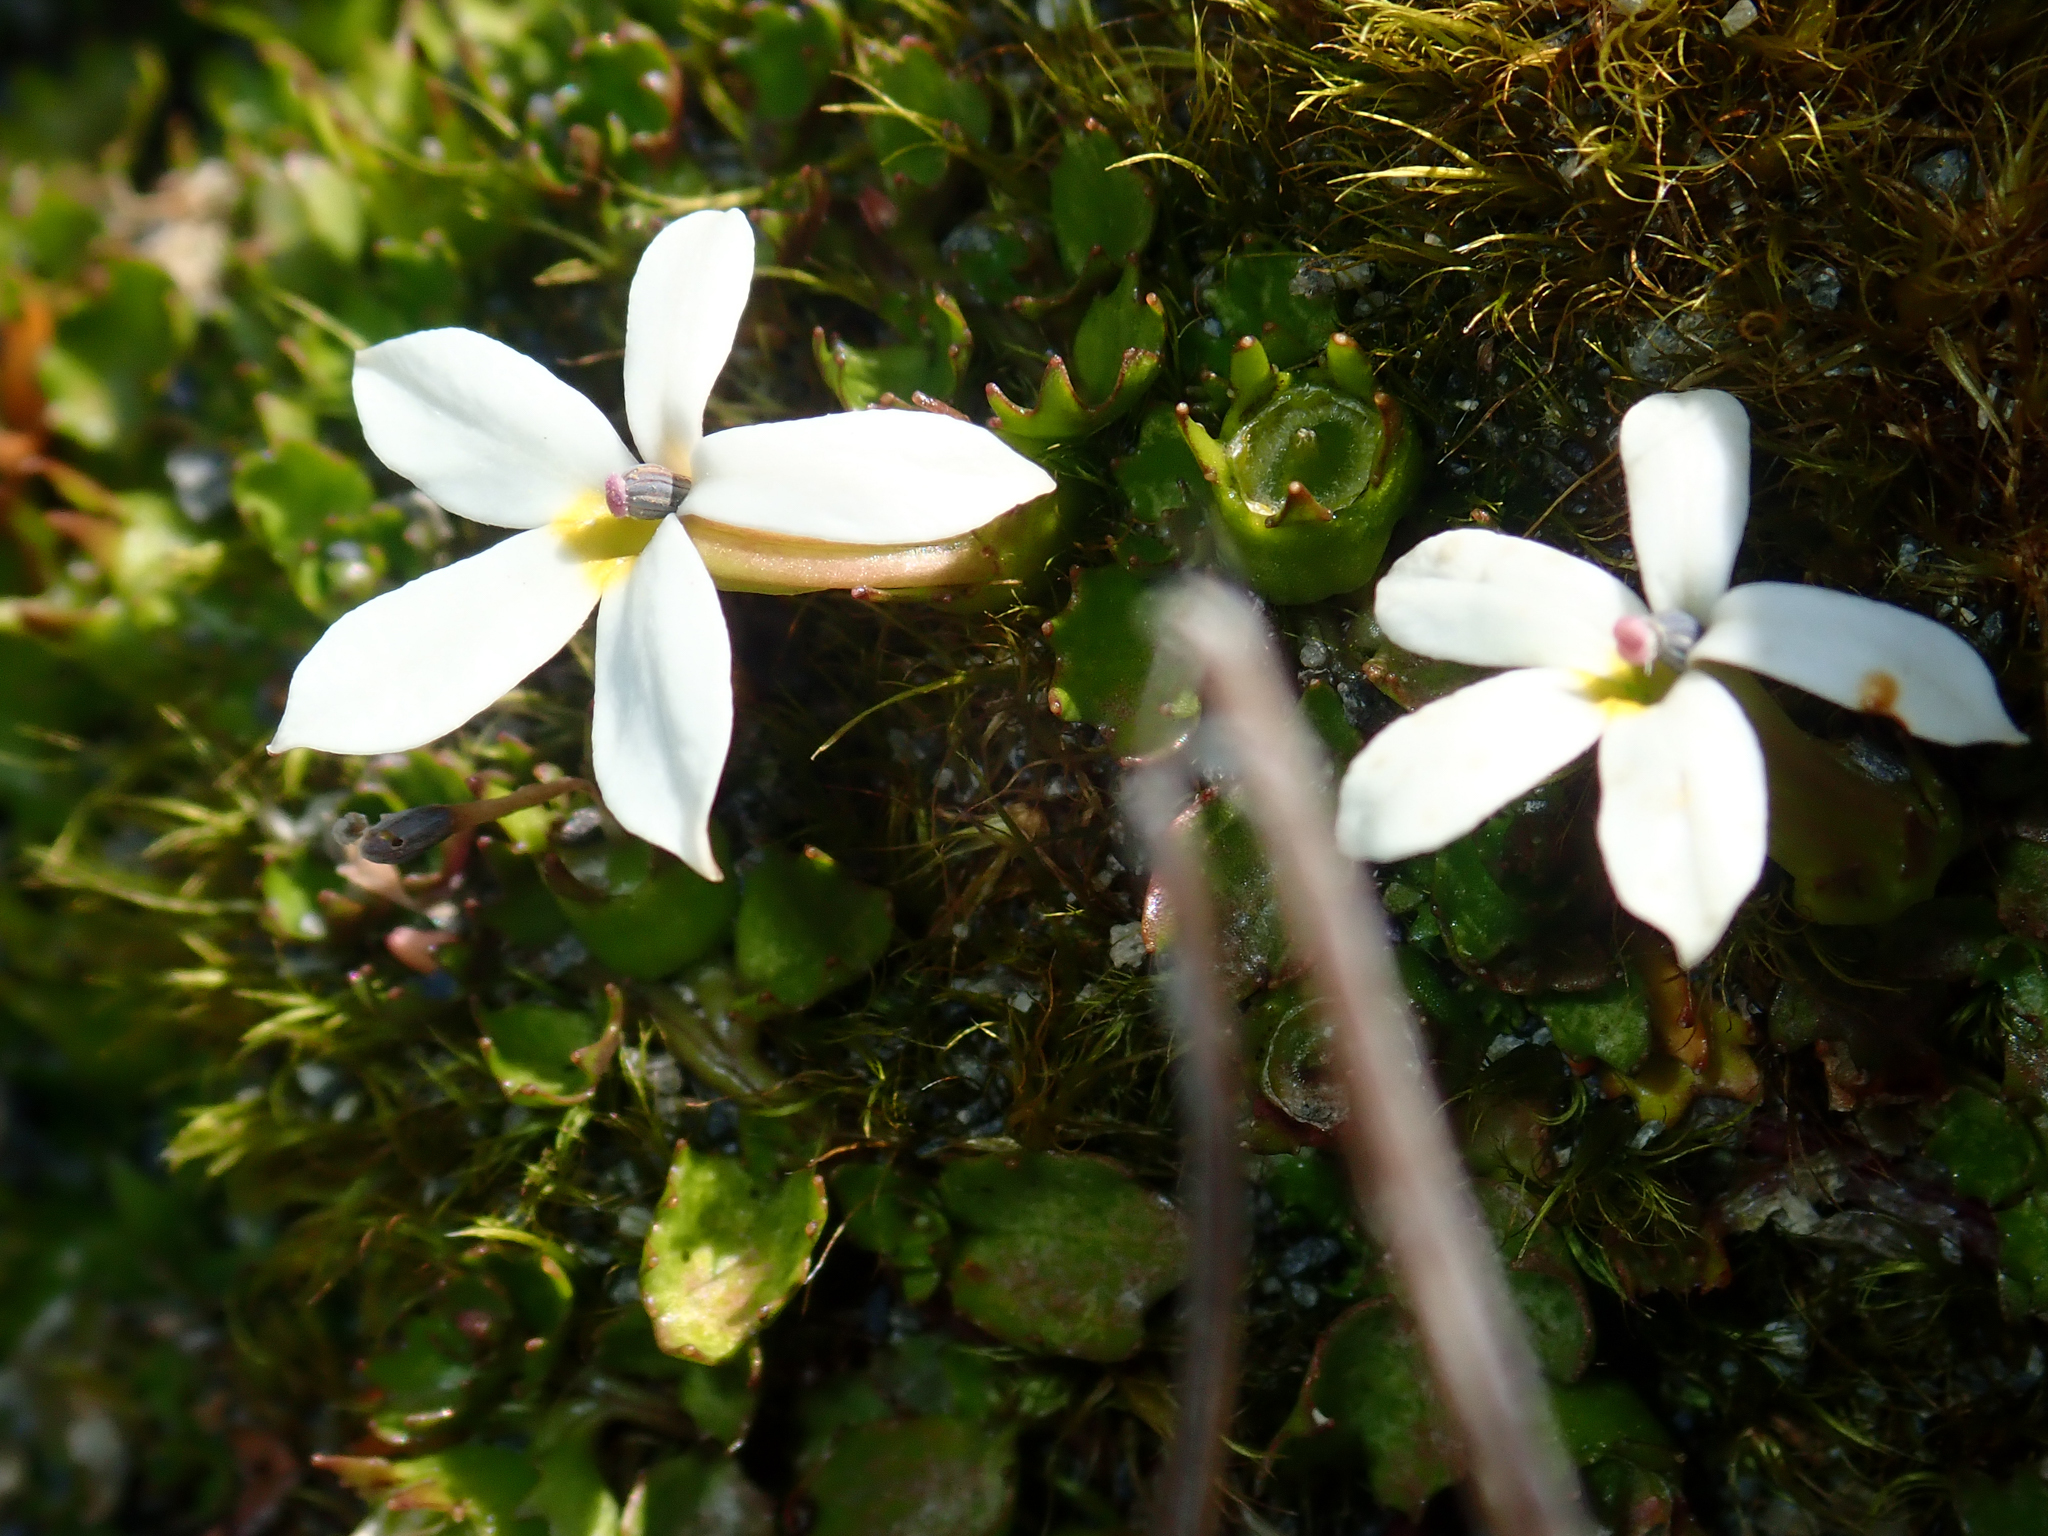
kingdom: Plantae
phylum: Tracheophyta
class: Magnoliopsida
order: Asterales
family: Campanulaceae
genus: Lobelia
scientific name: Lobelia macrodon
